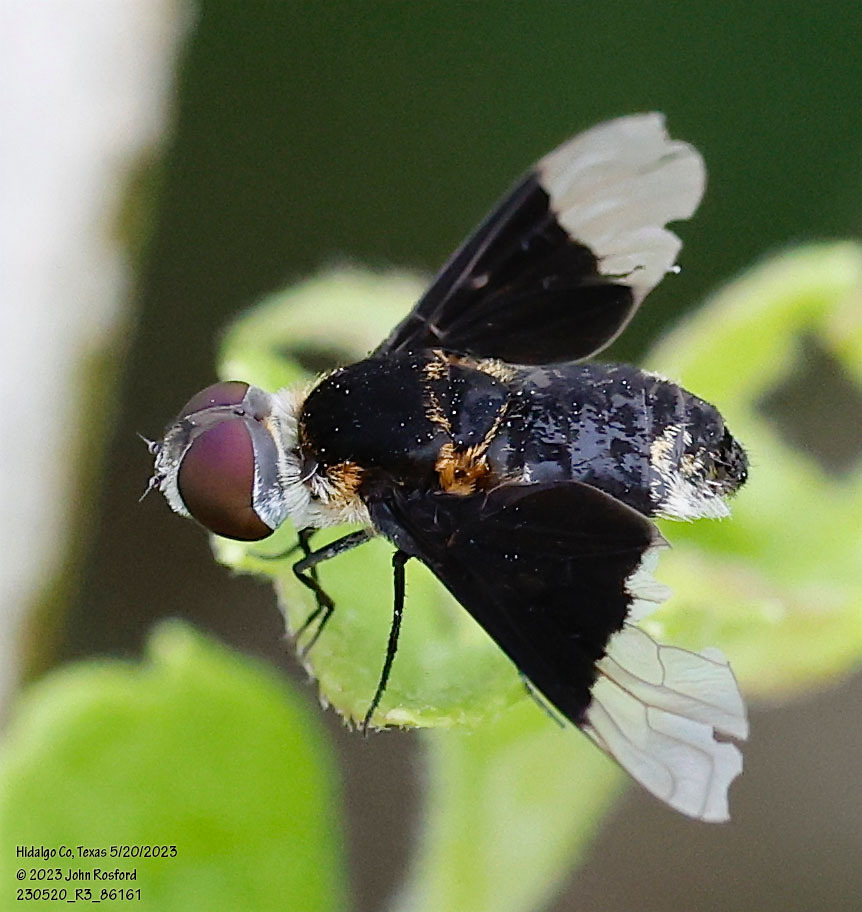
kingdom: Animalia
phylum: Arthropoda
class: Insecta
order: Diptera
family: Bombyliidae
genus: Ins
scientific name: Ins celeris
